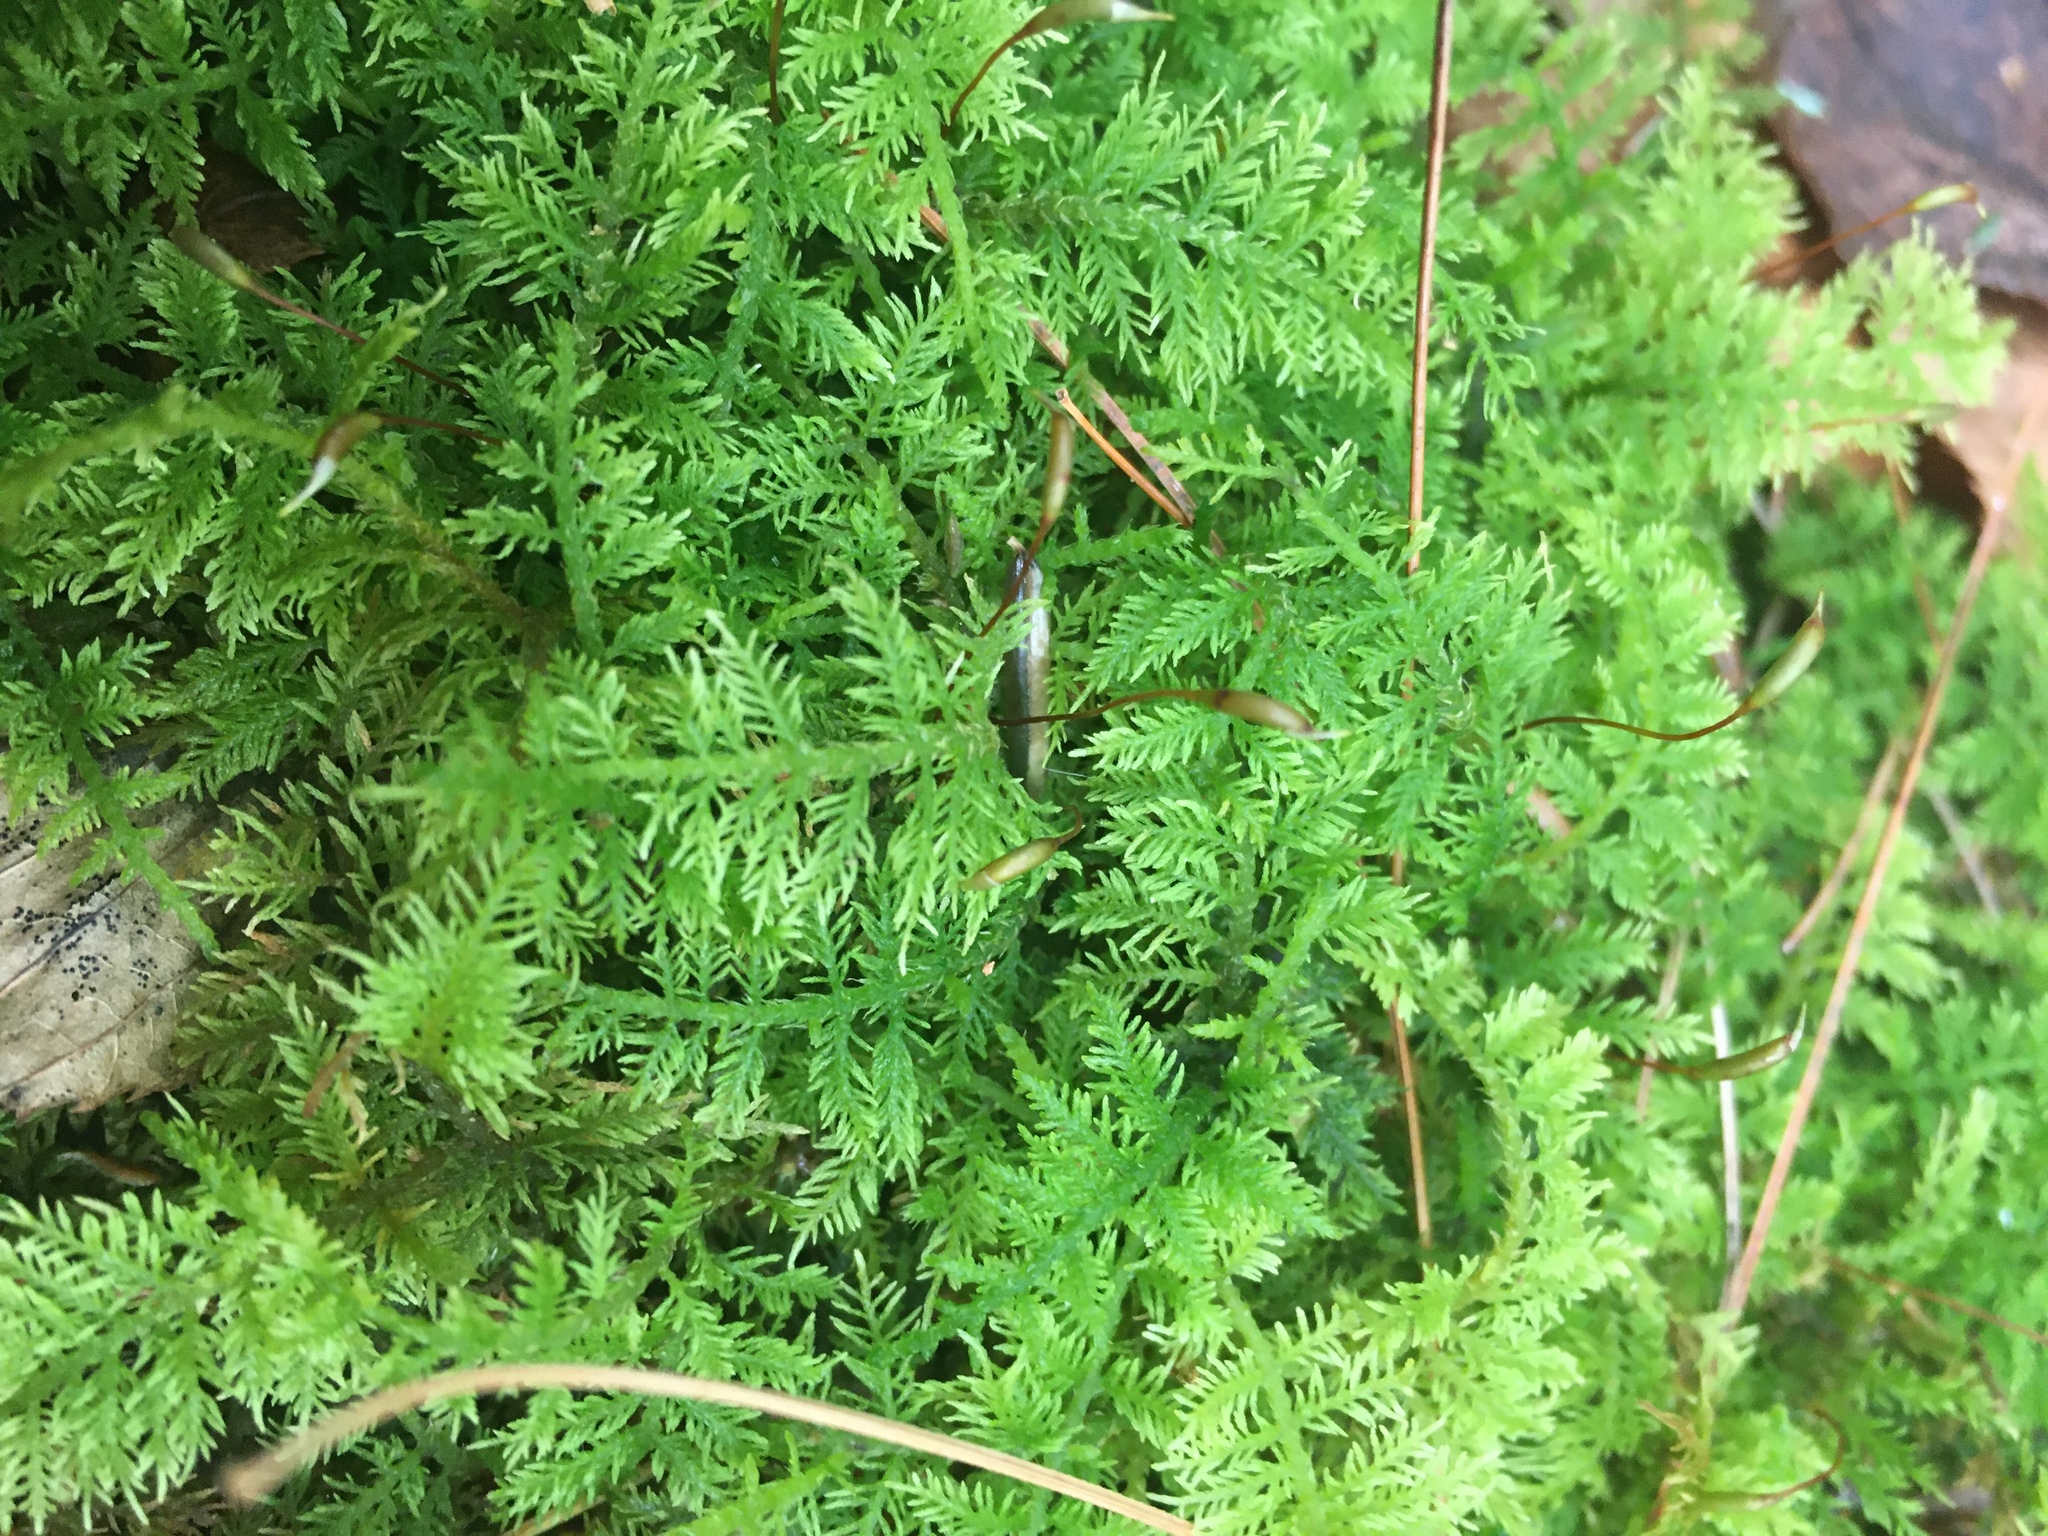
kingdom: Plantae
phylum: Bryophyta
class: Bryopsida
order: Hypnales
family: Thuidiaceae
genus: Thuidium
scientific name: Thuidium delicatulum
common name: Delicate fern moss
